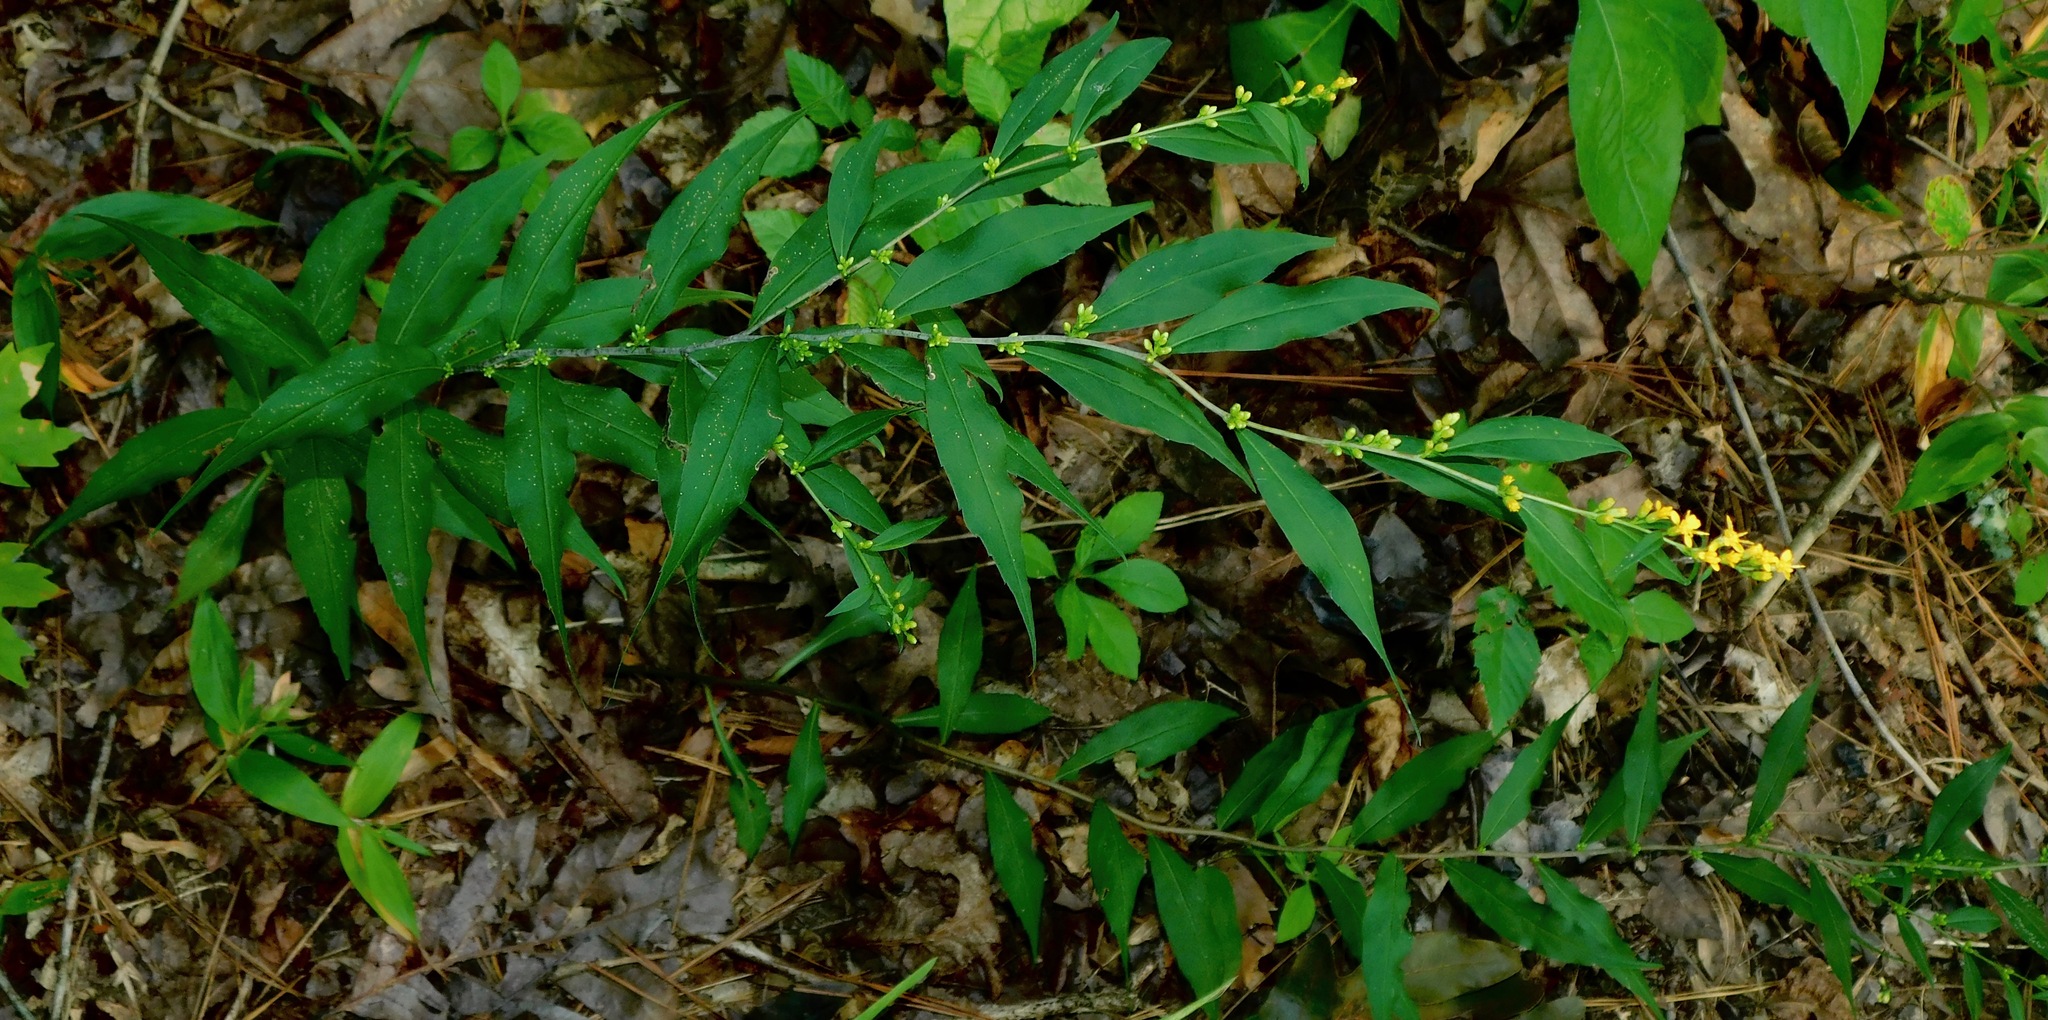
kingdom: Plantae
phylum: Tracheophyta
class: Magnoliopsida
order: Asterales
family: Asteraceae
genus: Solidago
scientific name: Solidago caesia
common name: Woodland goldenrod
